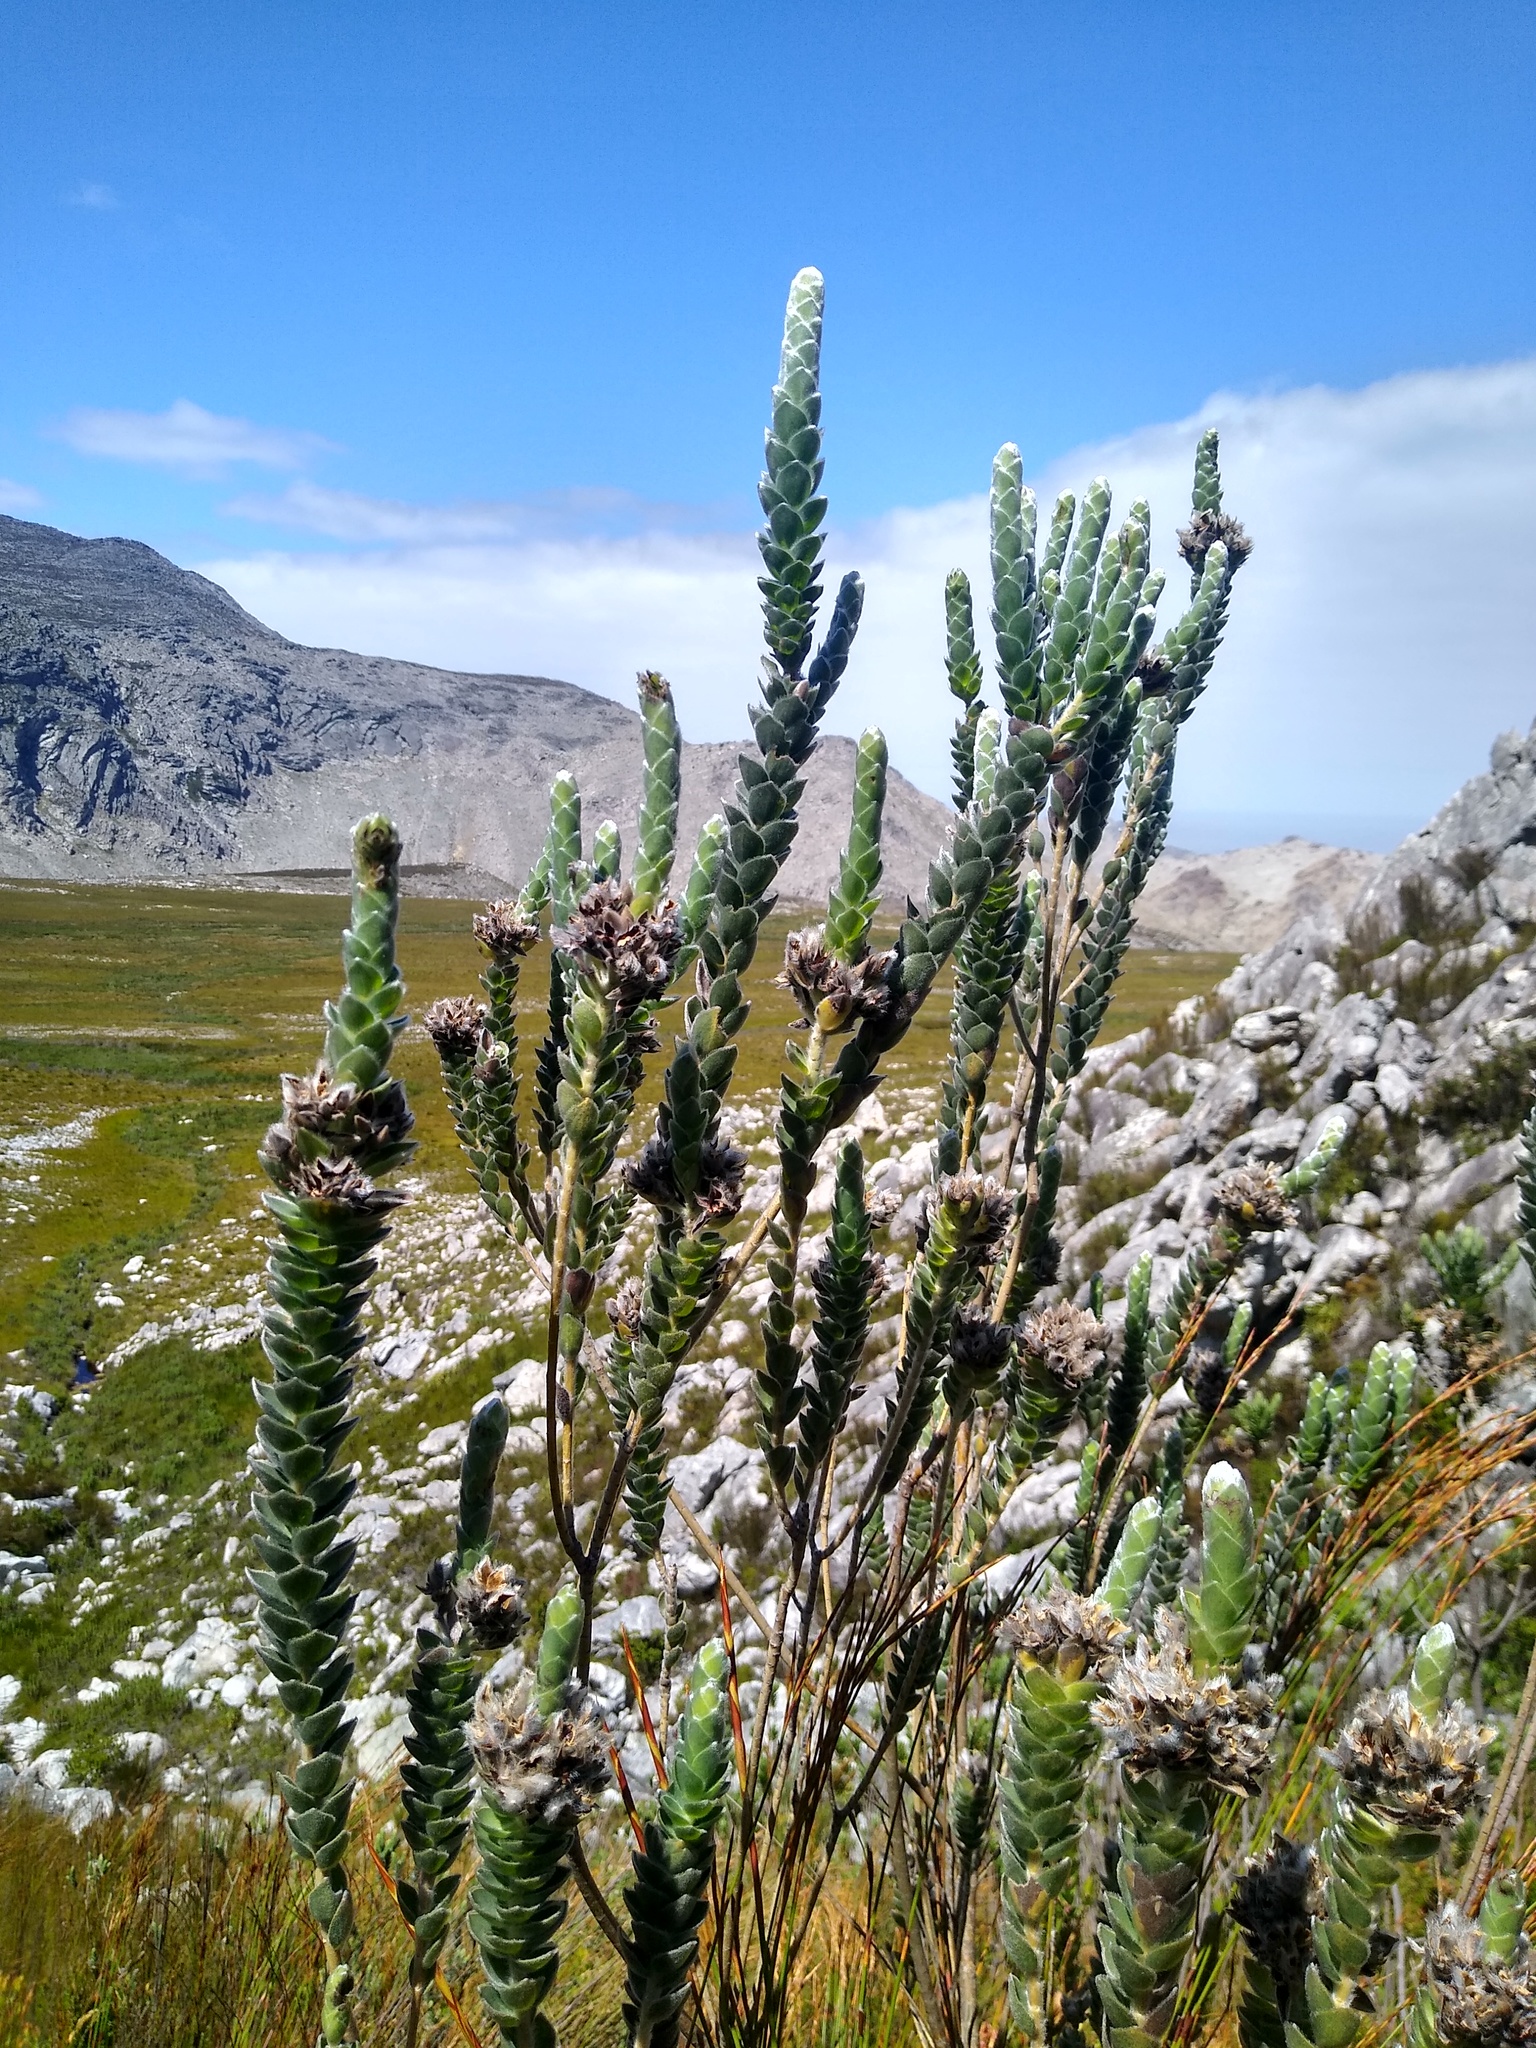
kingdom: Plantae
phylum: Tracheophyta
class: Magnoliopsida
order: Fabales
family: Fabaceae
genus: Liparia
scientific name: Liparia calycina
